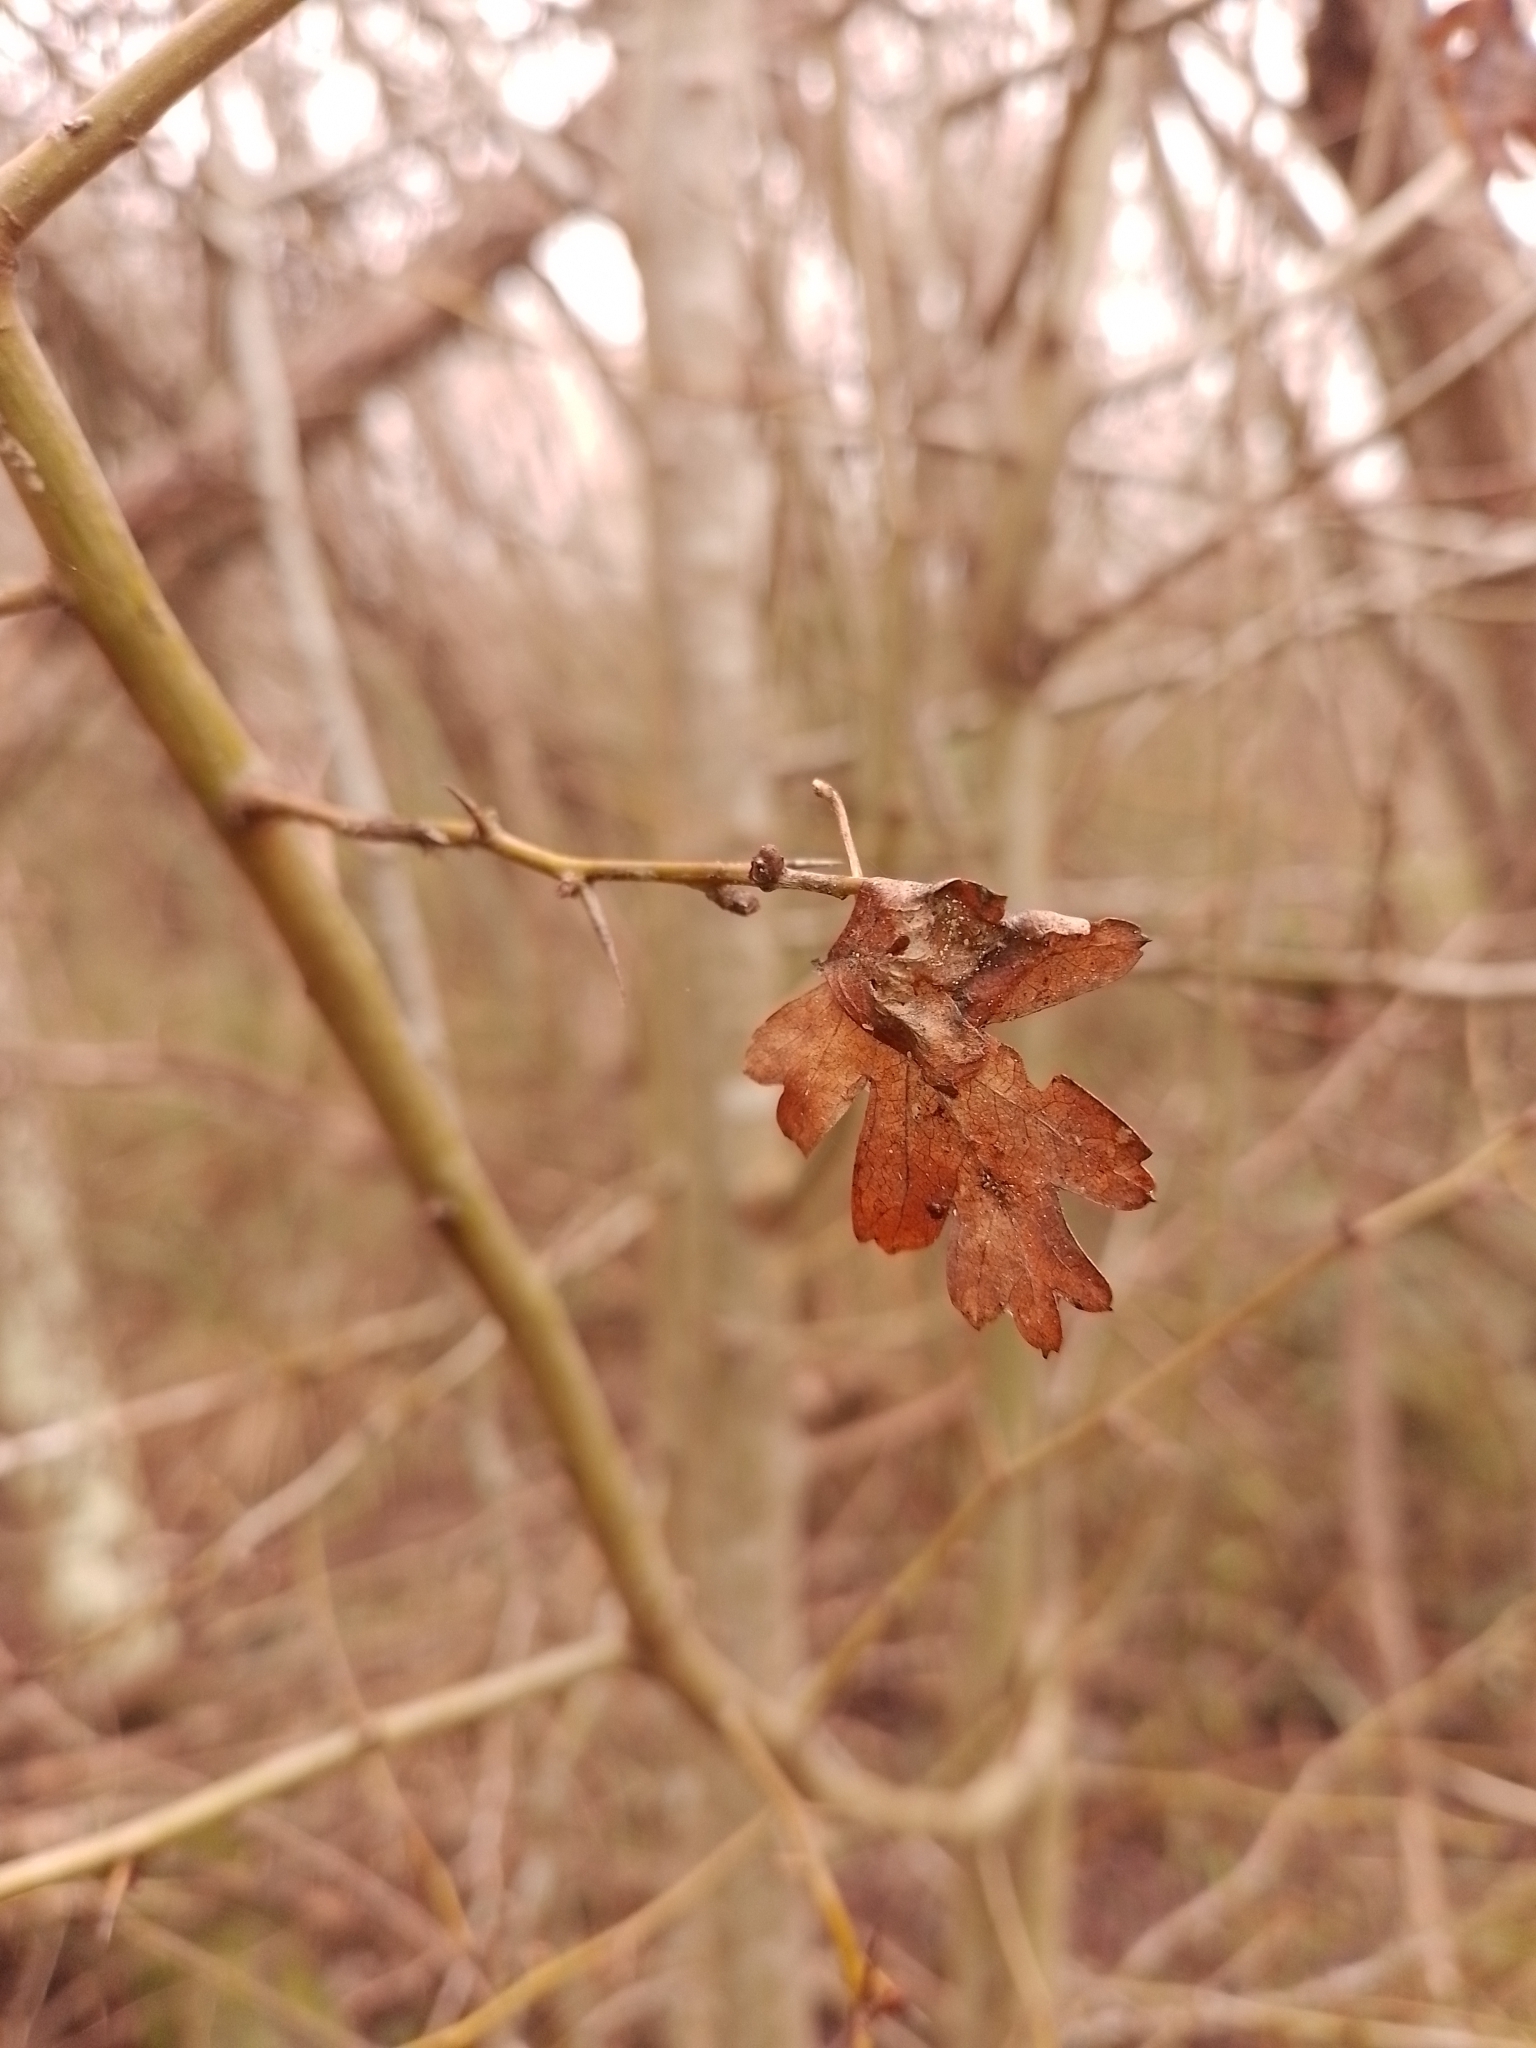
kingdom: Plantae
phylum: Tracheophyta
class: Magnoliopsida
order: Rosales
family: Rosaceae
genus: Crataegus
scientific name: Crataegus monogyna
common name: Hawthorn
